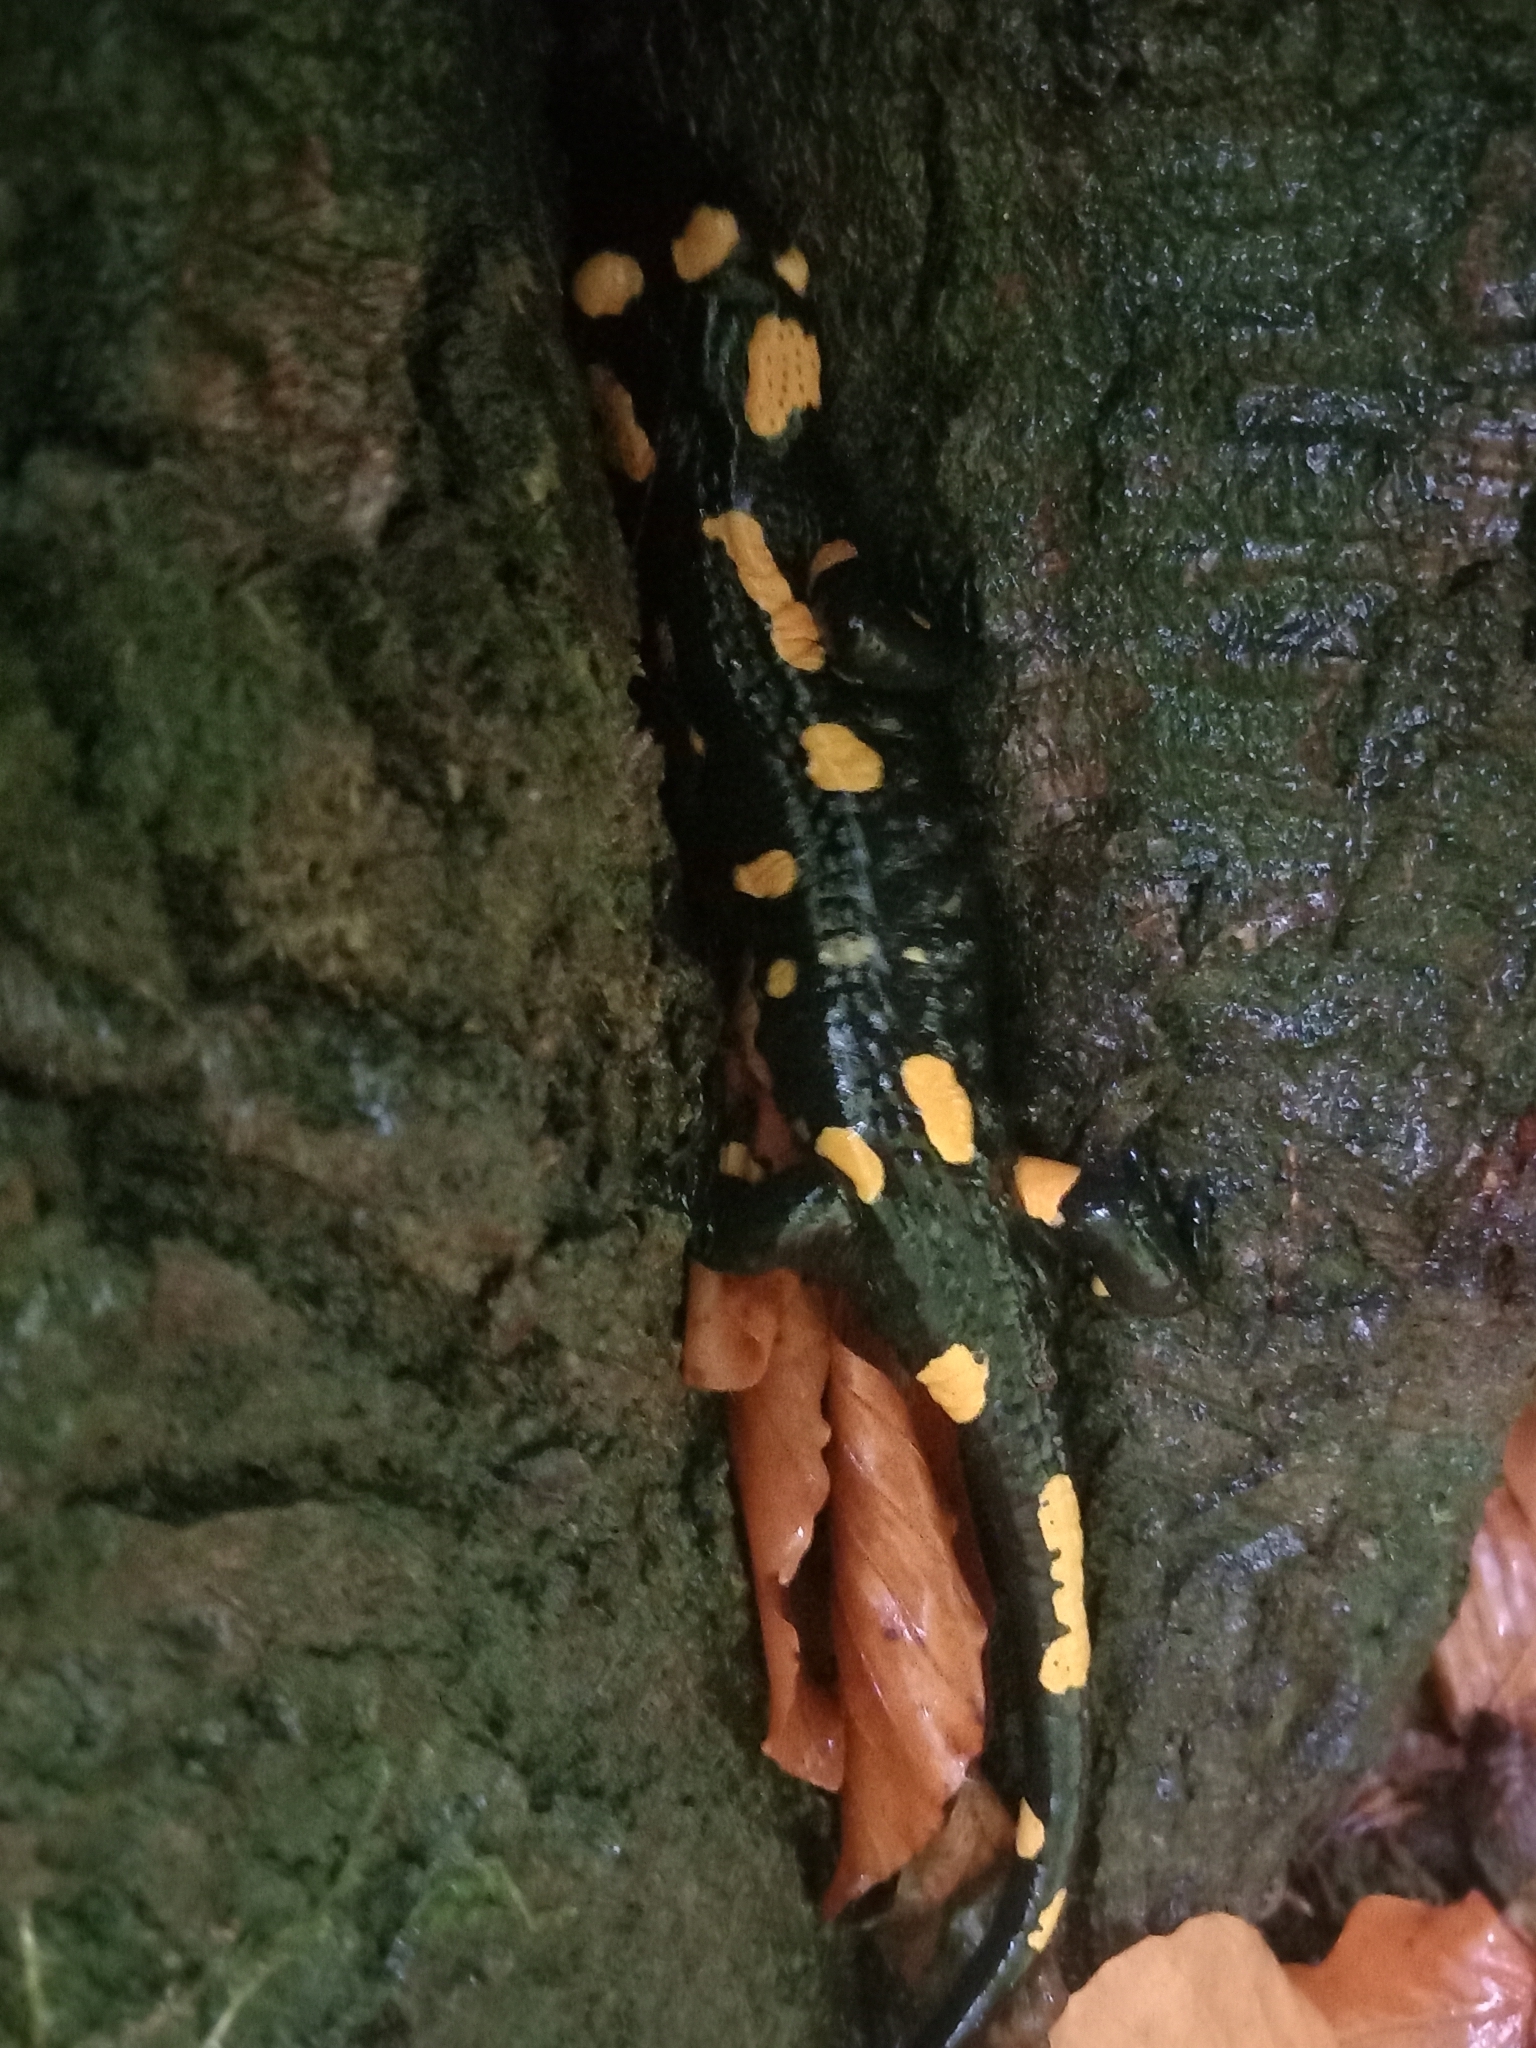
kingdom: Animalia
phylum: Chordata
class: Amphibia
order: Caudata
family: Salamandridae
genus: Salamandra
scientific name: Salamandra salamandra
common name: Fire salamander
